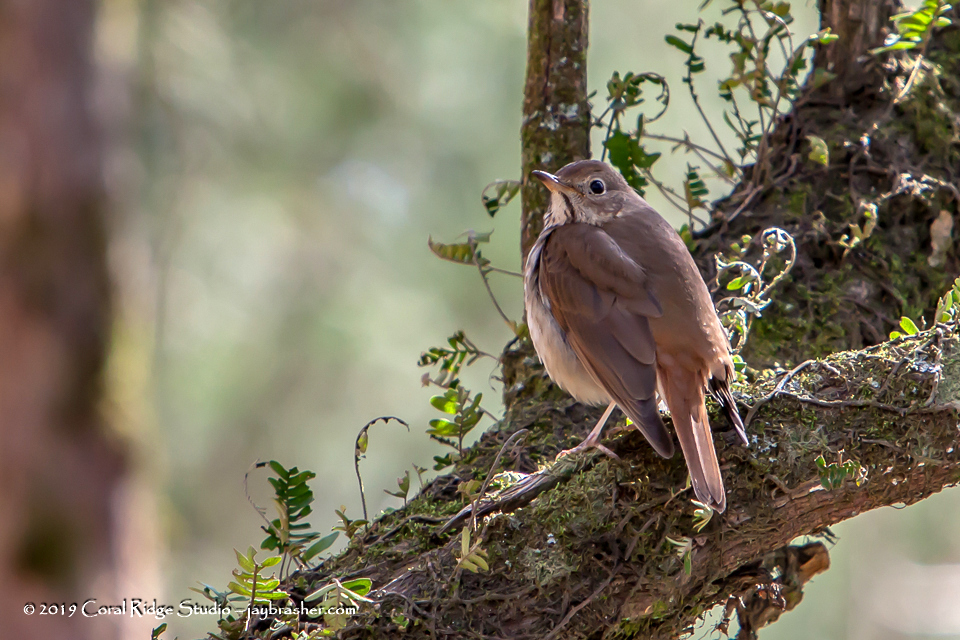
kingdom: Animalia
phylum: Chordata
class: Aves
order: Passeriformes
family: Turdidae
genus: Catharus
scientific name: Catharus guttatus
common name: Hermit thrush
